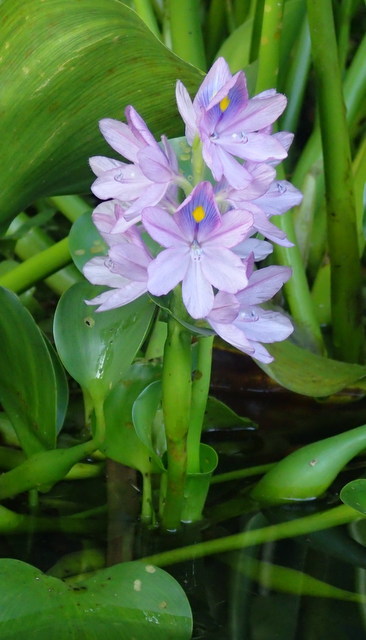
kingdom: Plantae
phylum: Tracheophyta
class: Liliopsida
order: Commelinales
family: Pontederiaceae
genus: Pontederia
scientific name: Pontederia crassipes
